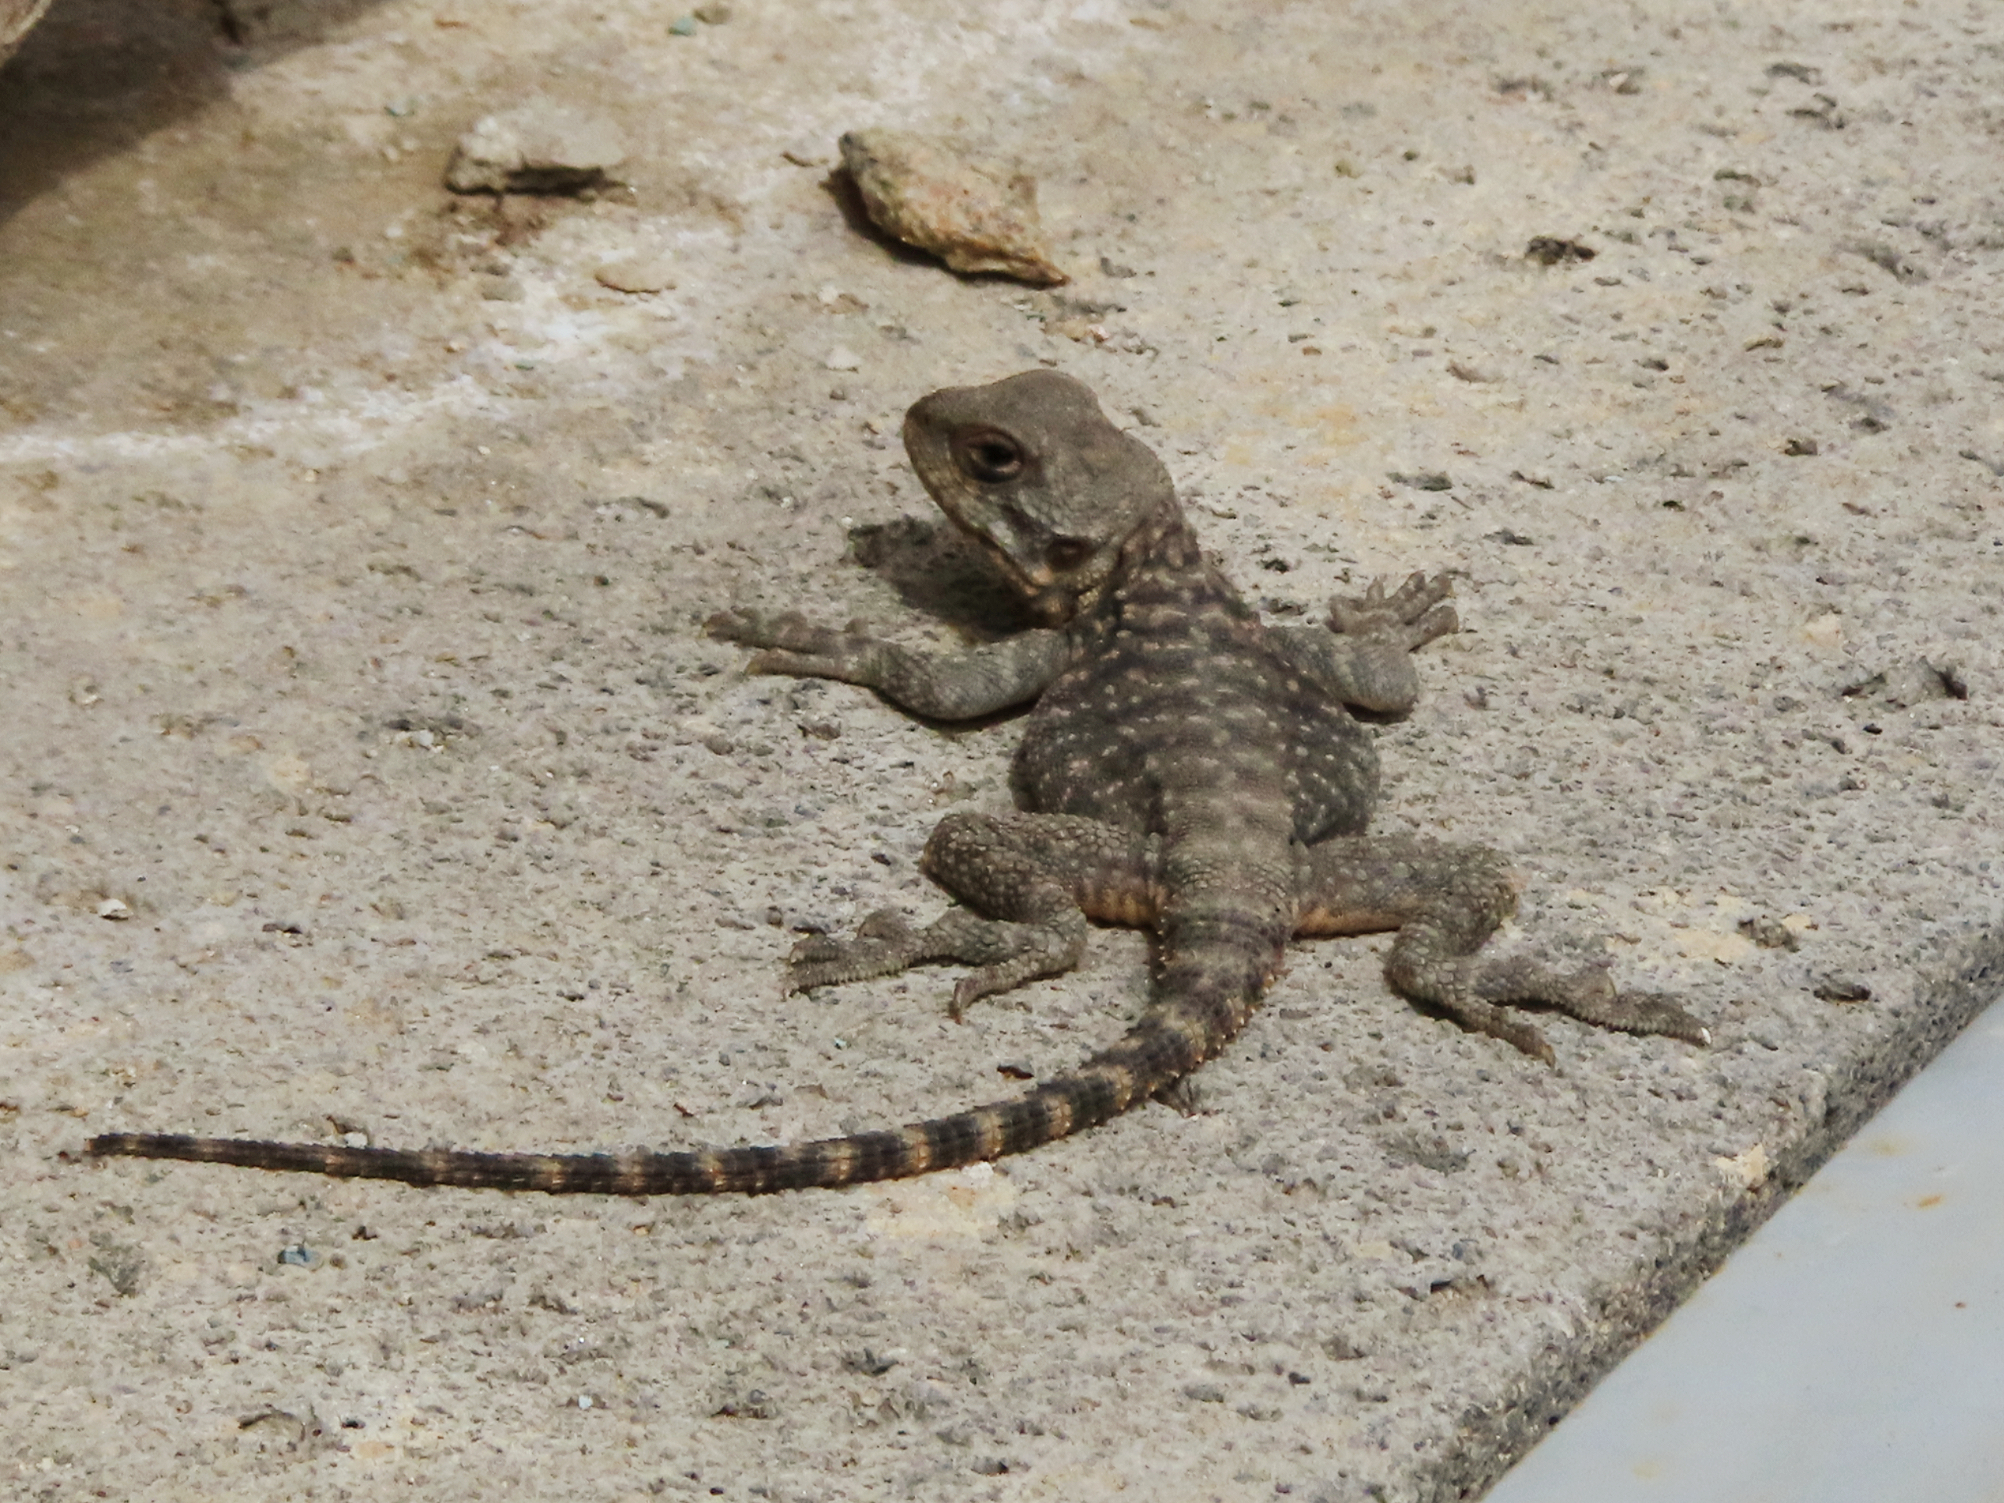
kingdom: Animalia
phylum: Chordata
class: Squamata
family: Agamidae
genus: Paralaudakia
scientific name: Paralaudakia caucasia
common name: Caucasian agama
